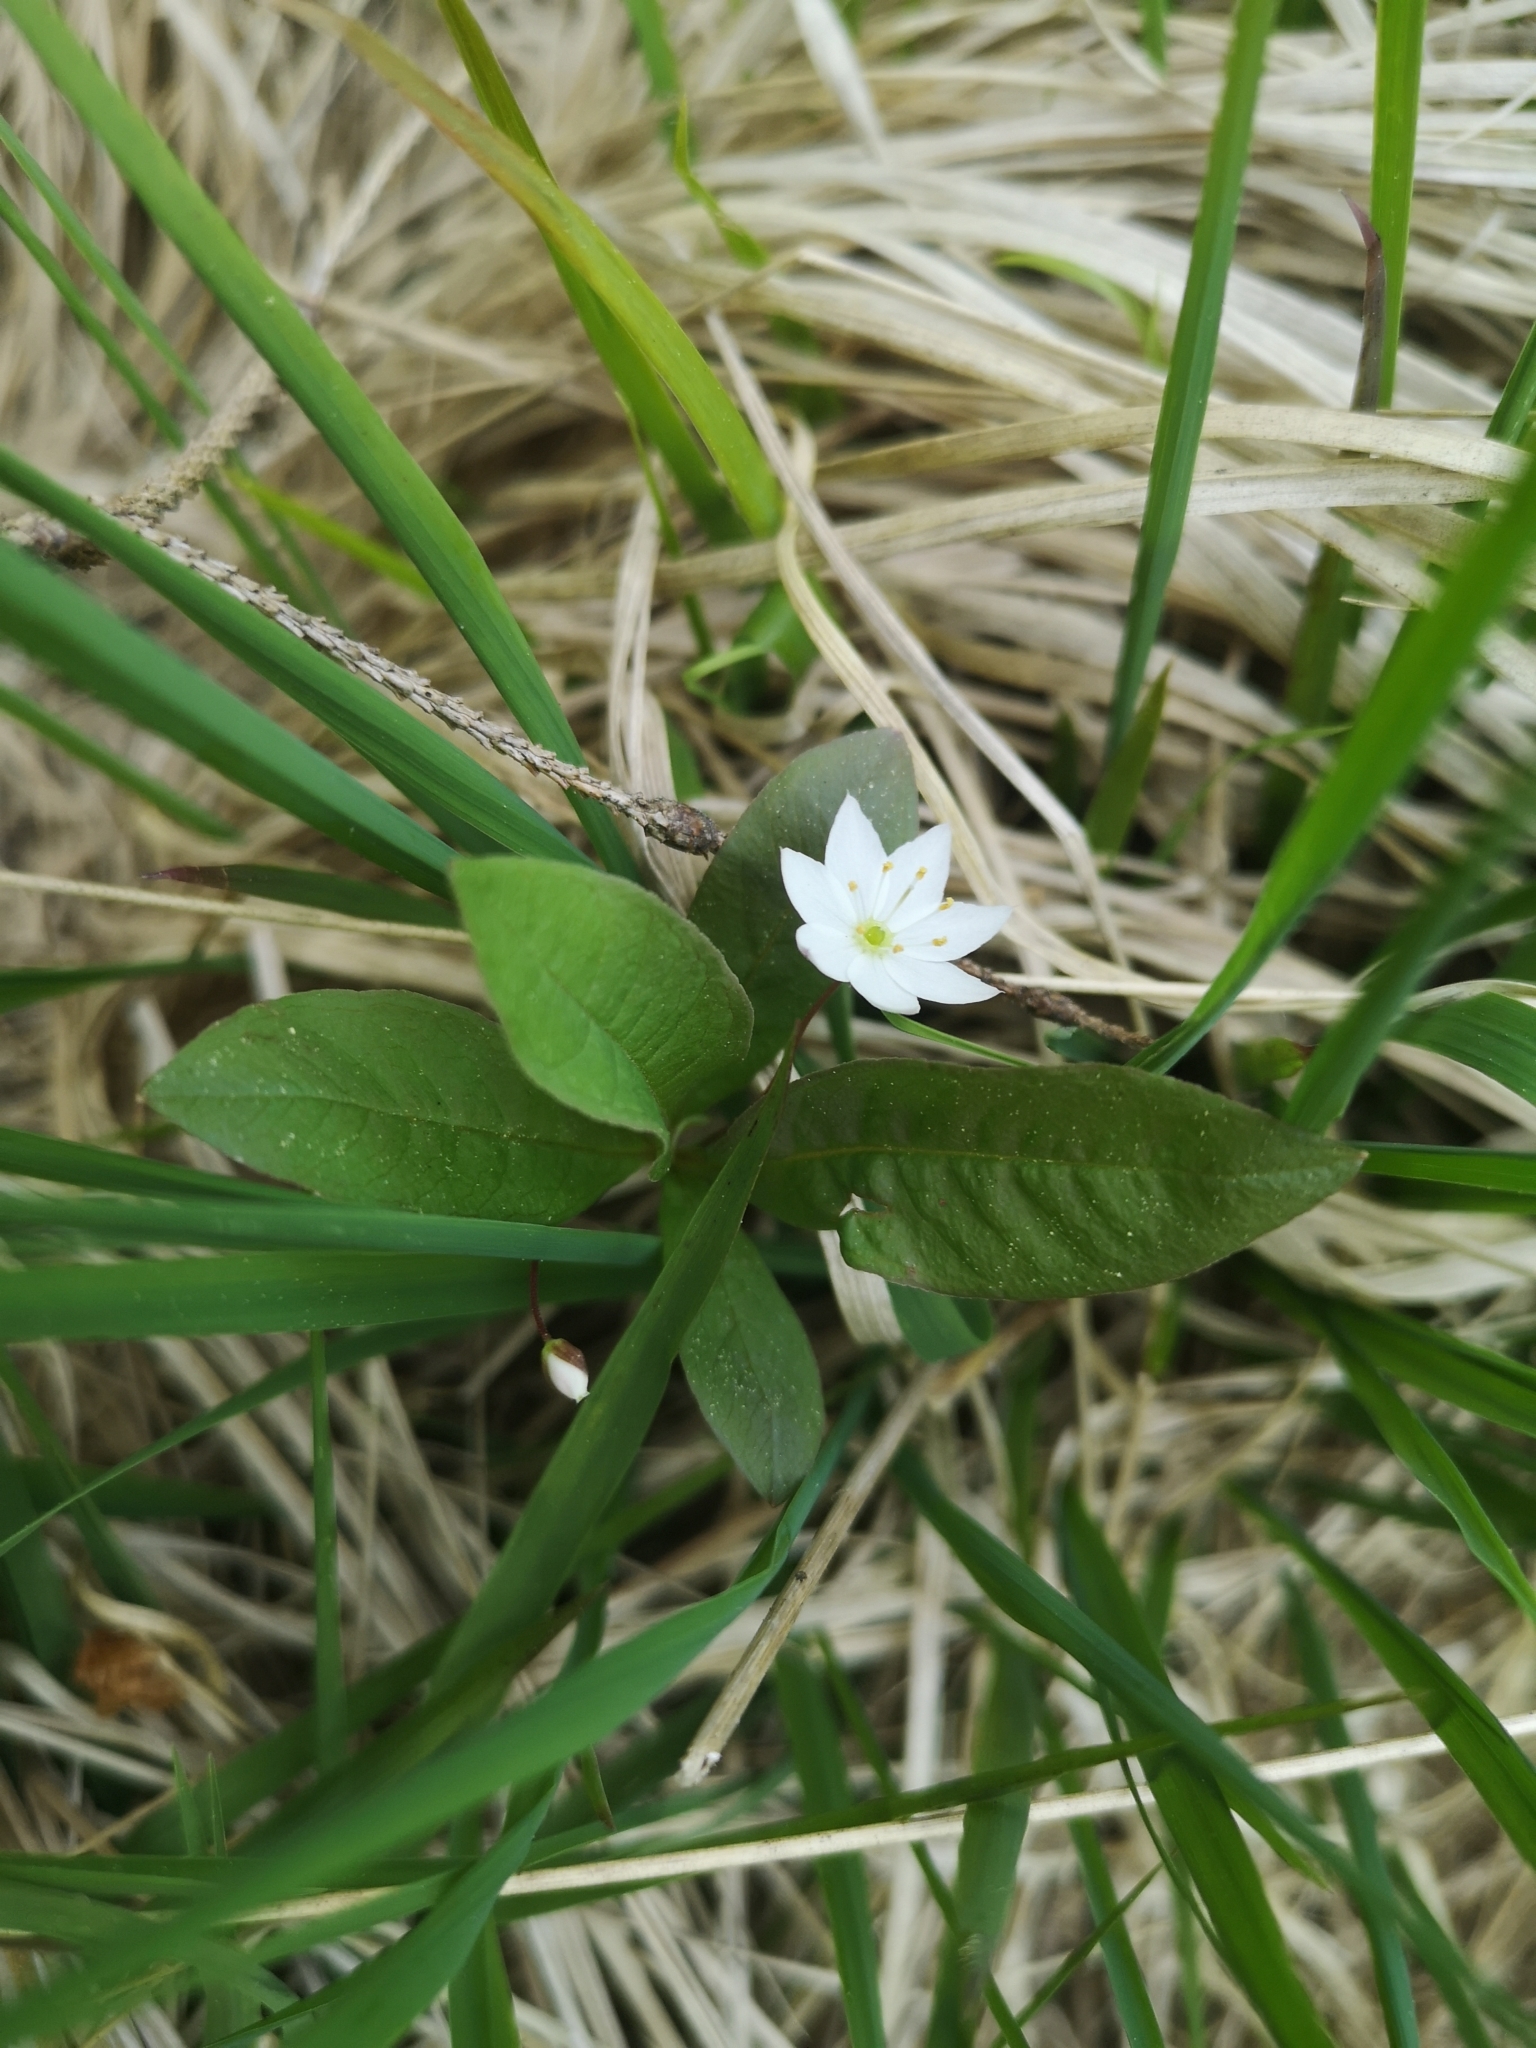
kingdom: Plantae
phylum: Tracheophyta
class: Magnoliopsida
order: Ericales
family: Primulaceae
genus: Lysimachia
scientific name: Lysimachia europaea
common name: Arctic starflower
